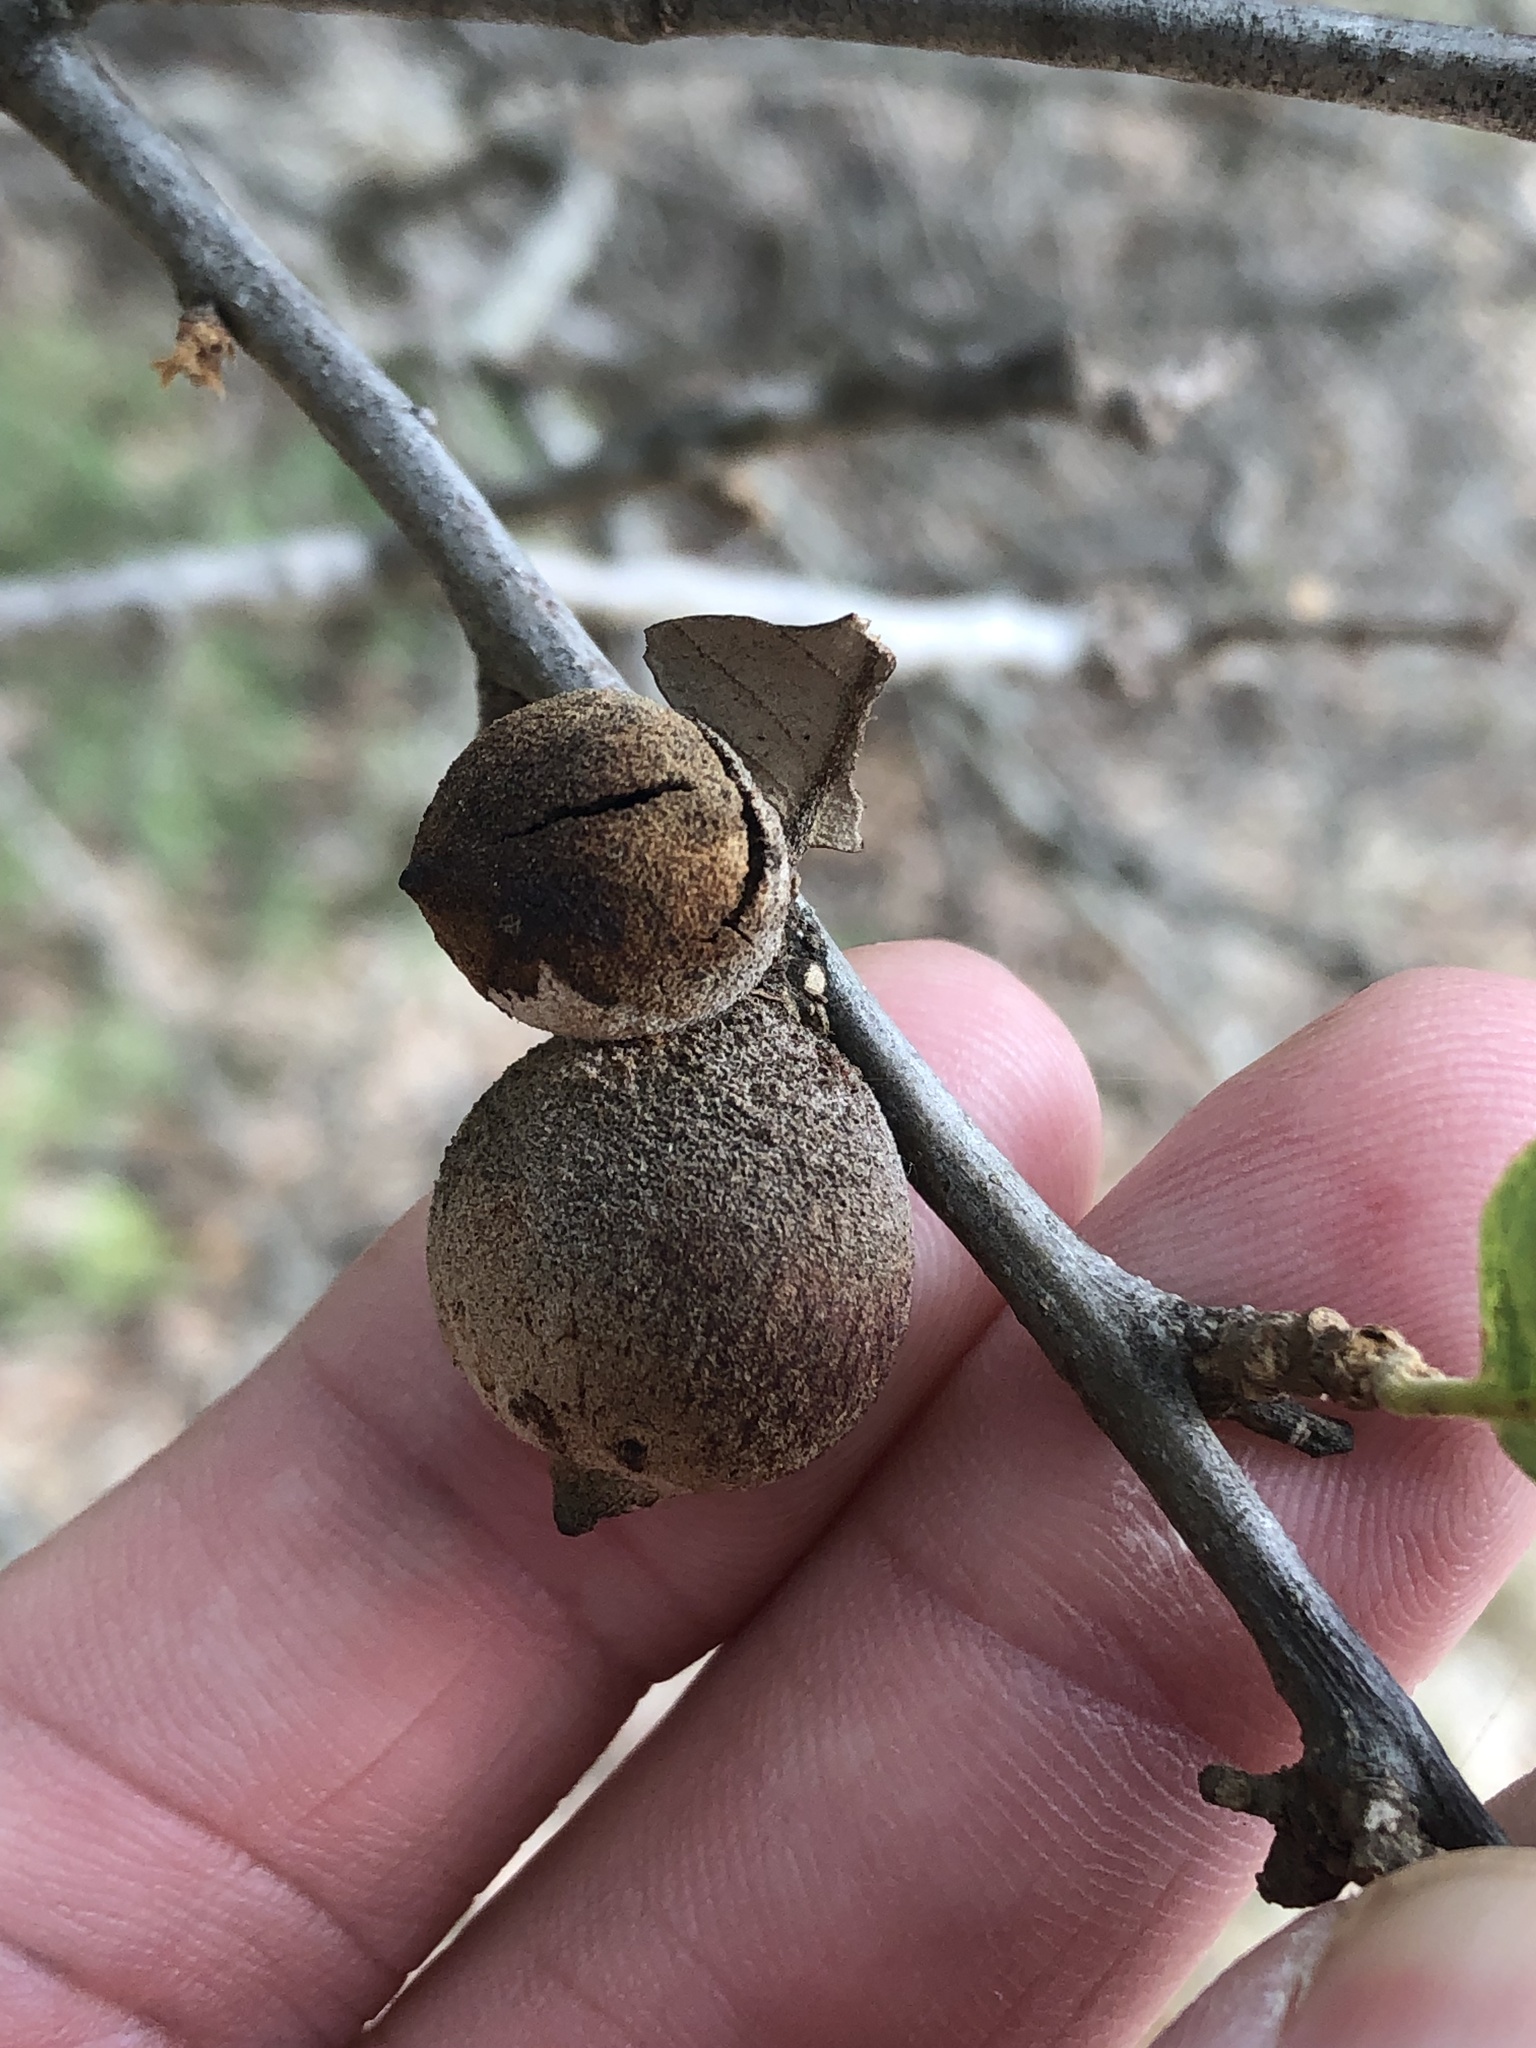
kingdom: Animalia
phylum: Arthropoda
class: Insecta
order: Hymenoptera
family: Cynipidae
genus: Disholcaspis
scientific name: Disholcaspis
